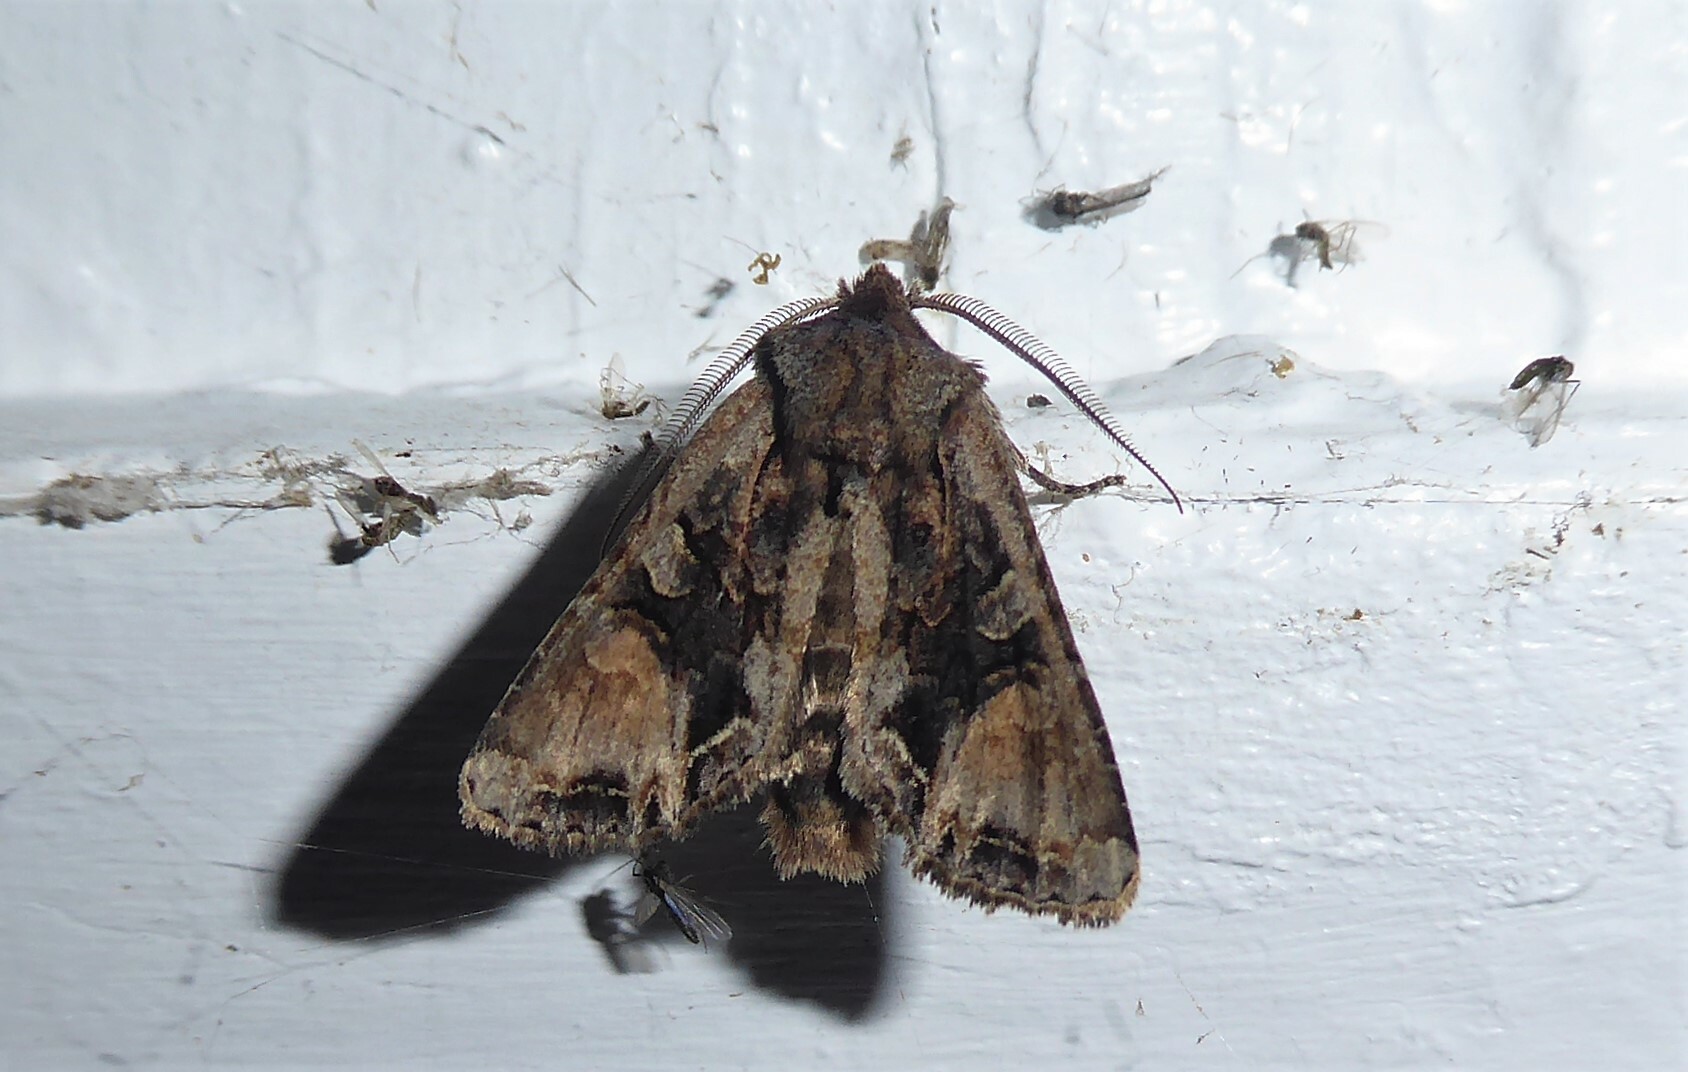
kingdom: Animalia
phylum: Arthropoda
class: Insecta
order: Lepidoptera
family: Noctuidae
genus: Ichneutica
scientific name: Ichneutica
